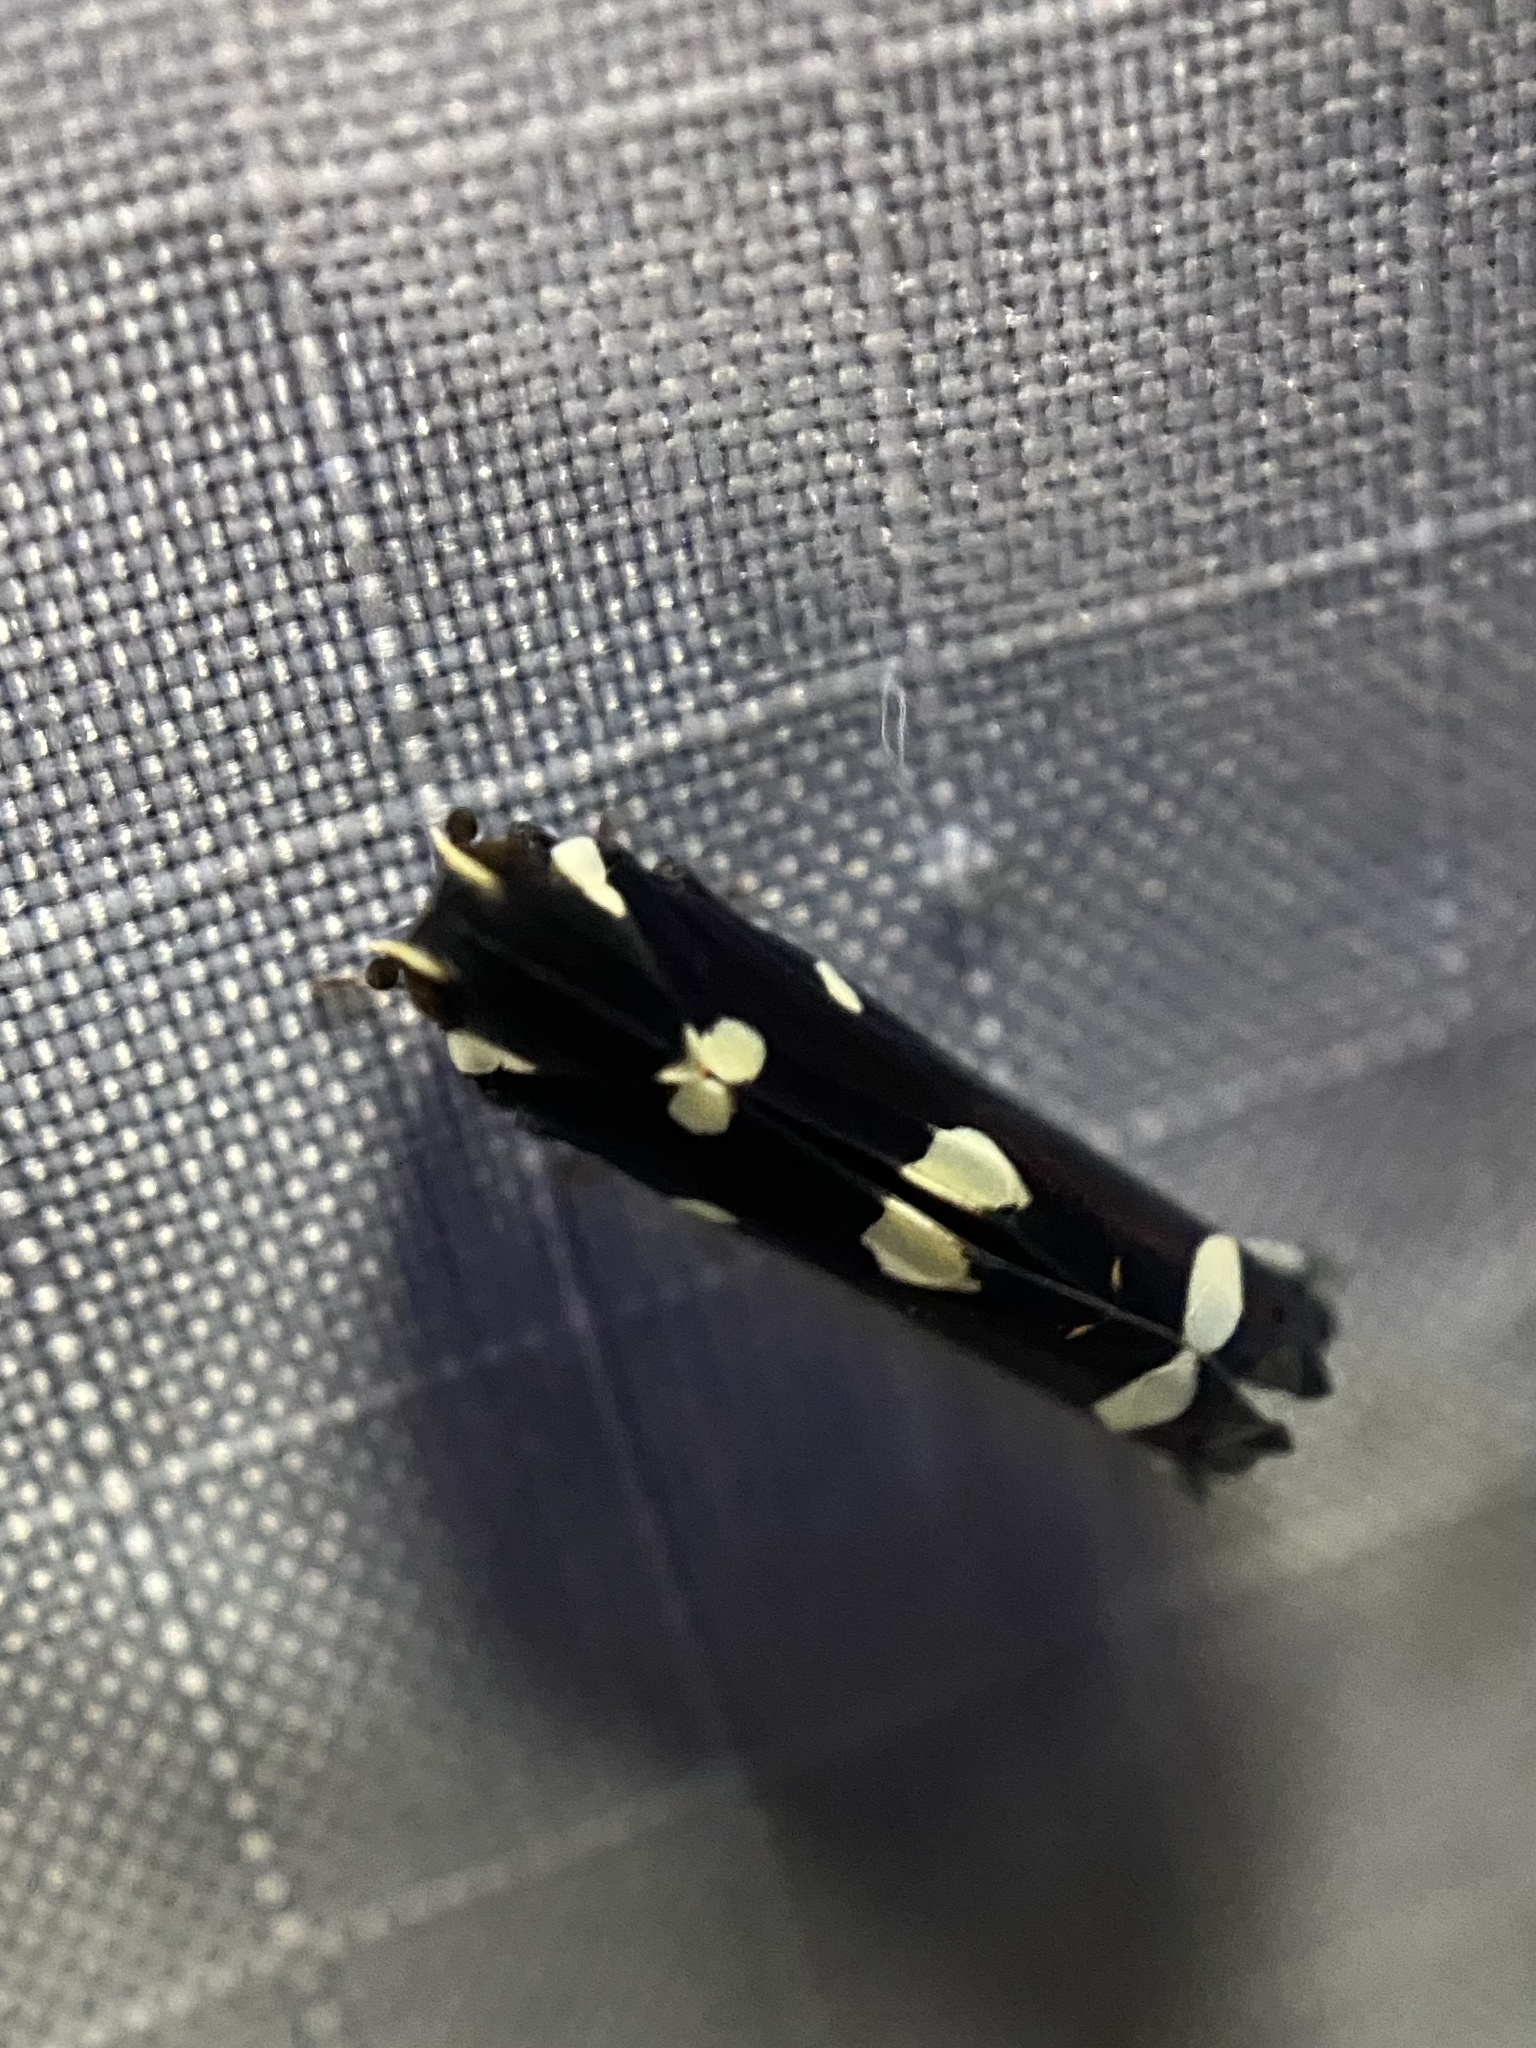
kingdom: Animalia
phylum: Arthropoda
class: Insecta
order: Hemiptera
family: Achilidae
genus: Apateson
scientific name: Apateson albomaculatum
